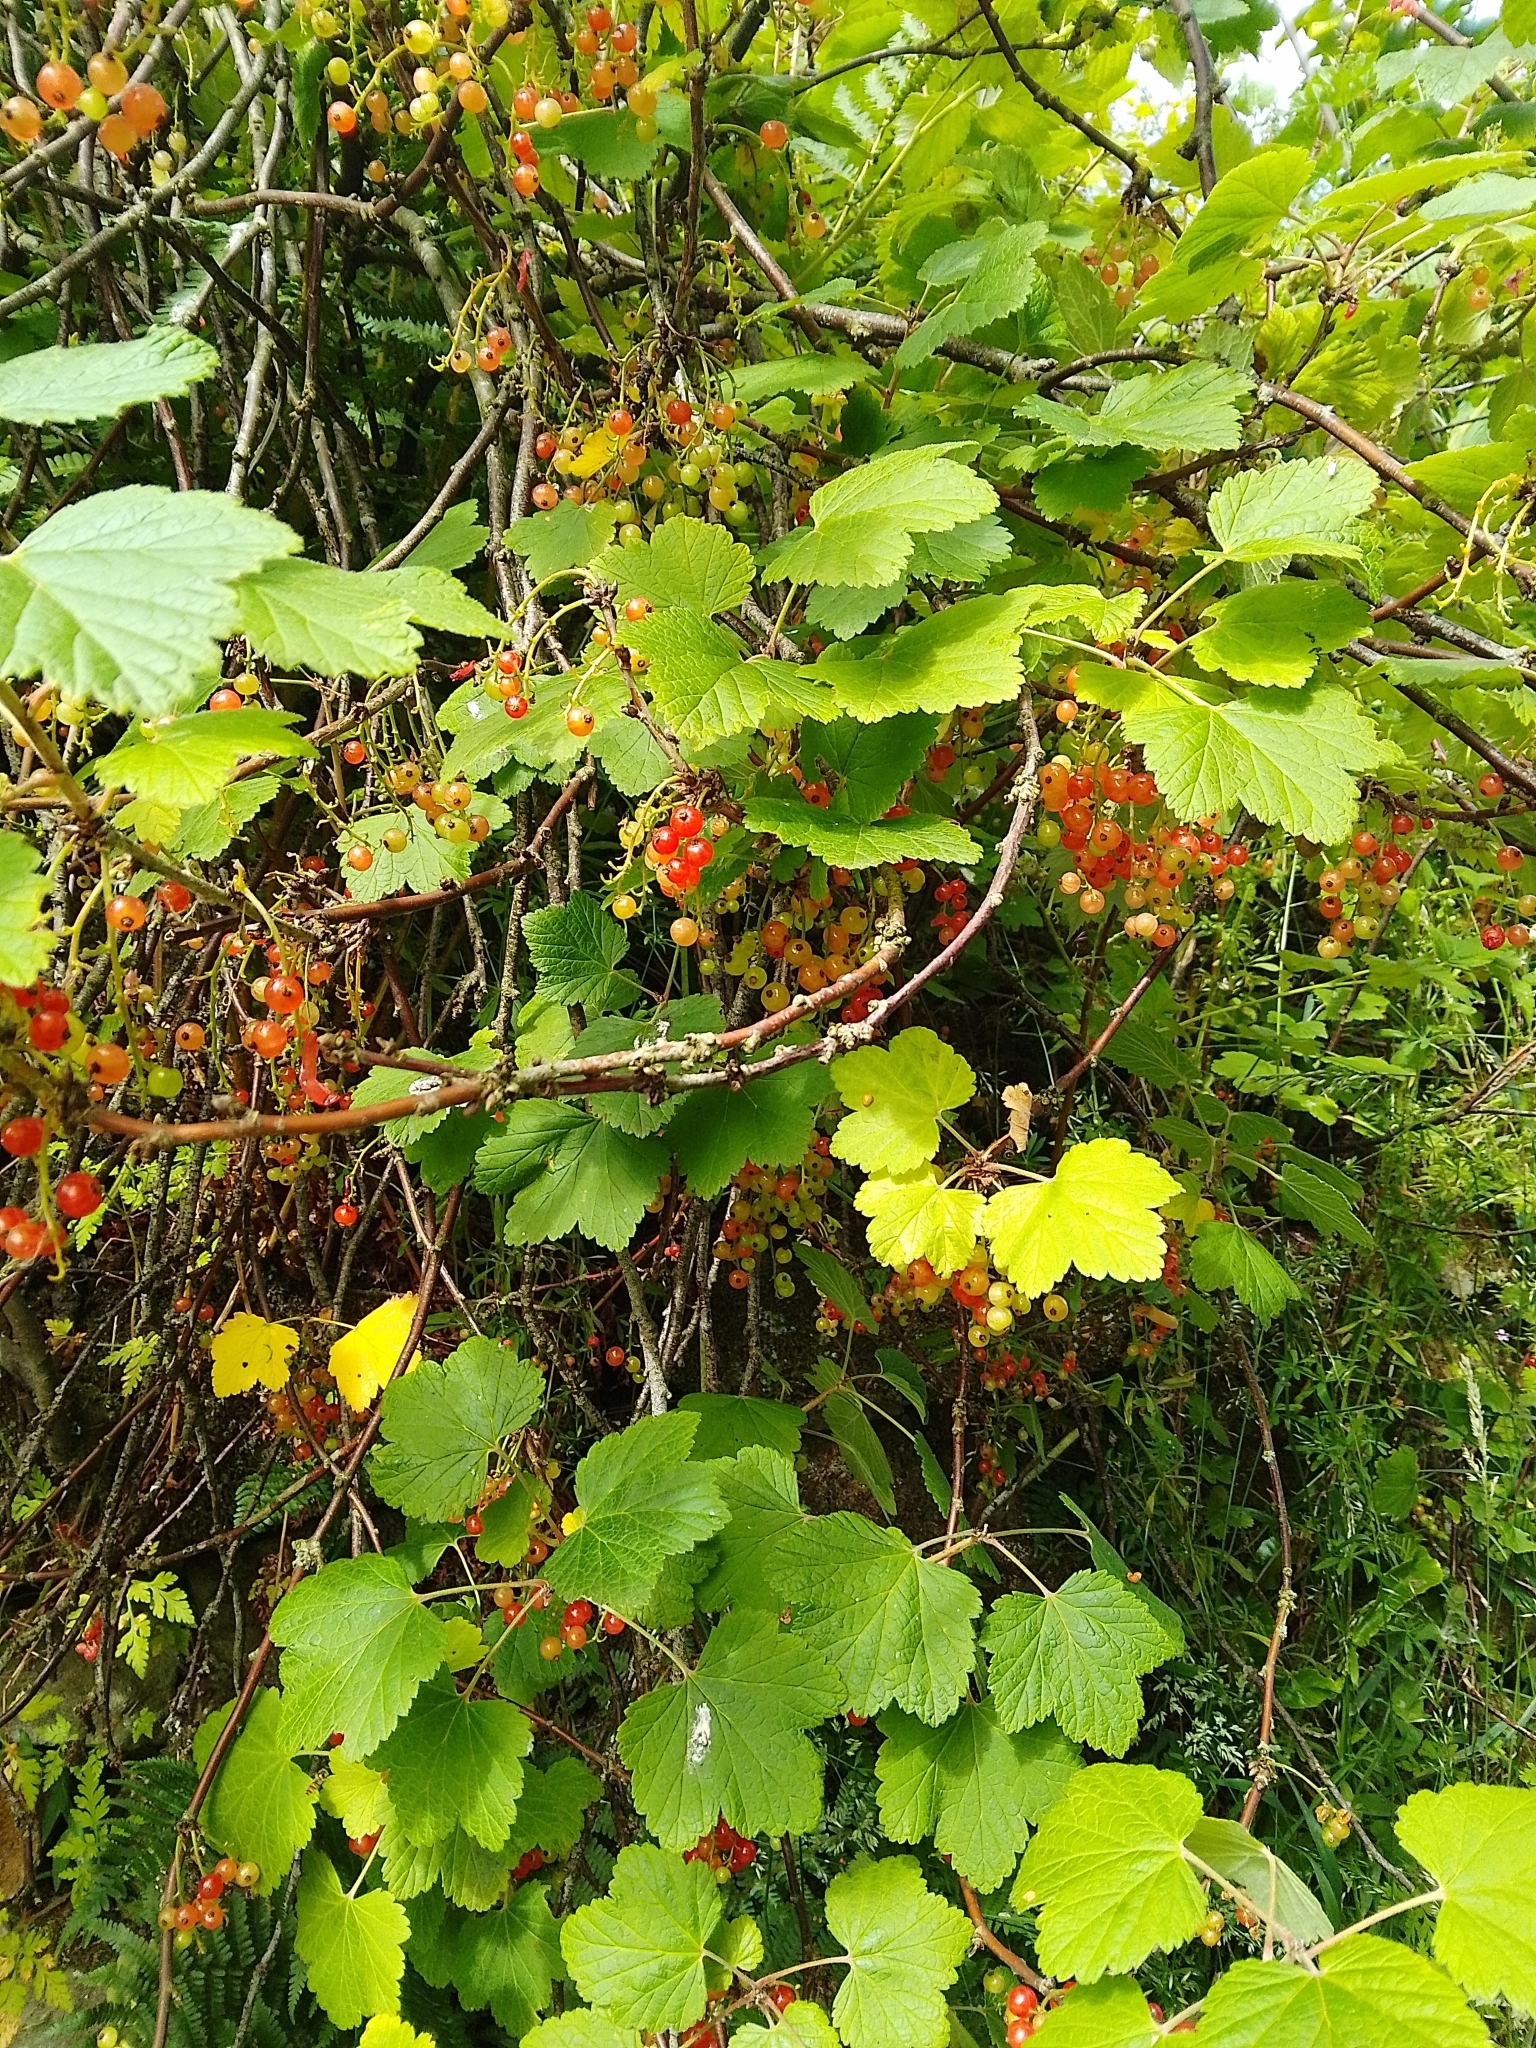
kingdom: Plantae
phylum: Tracheophyta
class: Magnoliopsida
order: Saxifragales
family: Grossulariaceae
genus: Ribes
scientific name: Ribes rubrum
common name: Red currant
